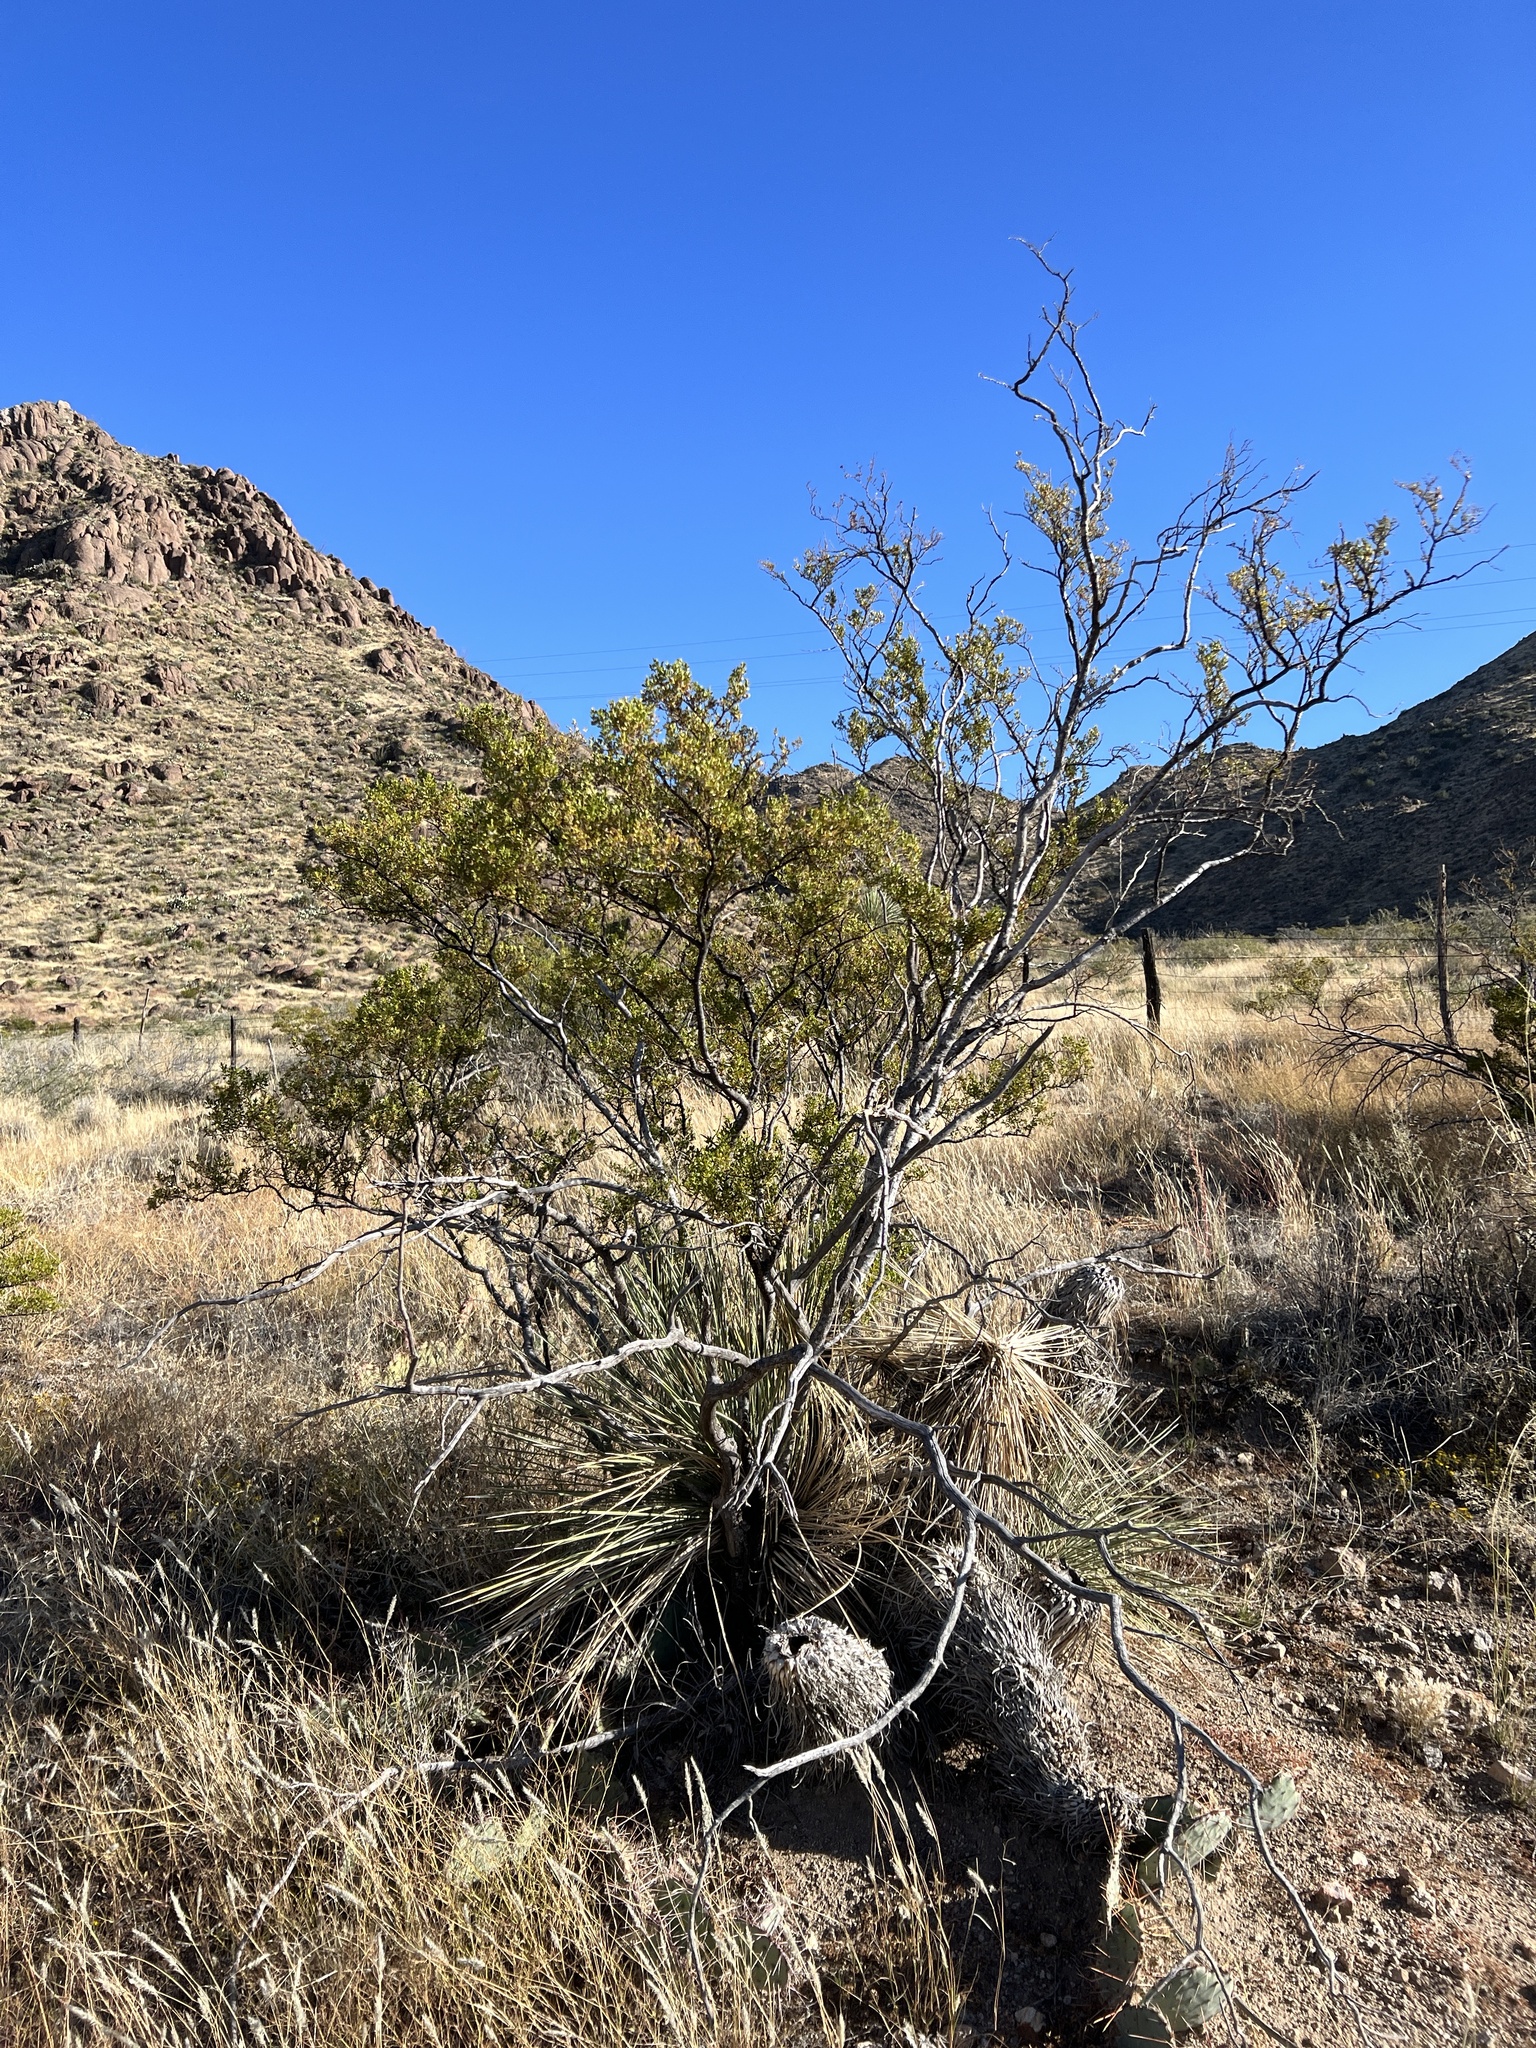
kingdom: Plantae
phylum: Tracheophyta
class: Magnoliopsida
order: Zygophyllales
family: Zygophyllaceae
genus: Larrea
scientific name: Larrea tridentata
